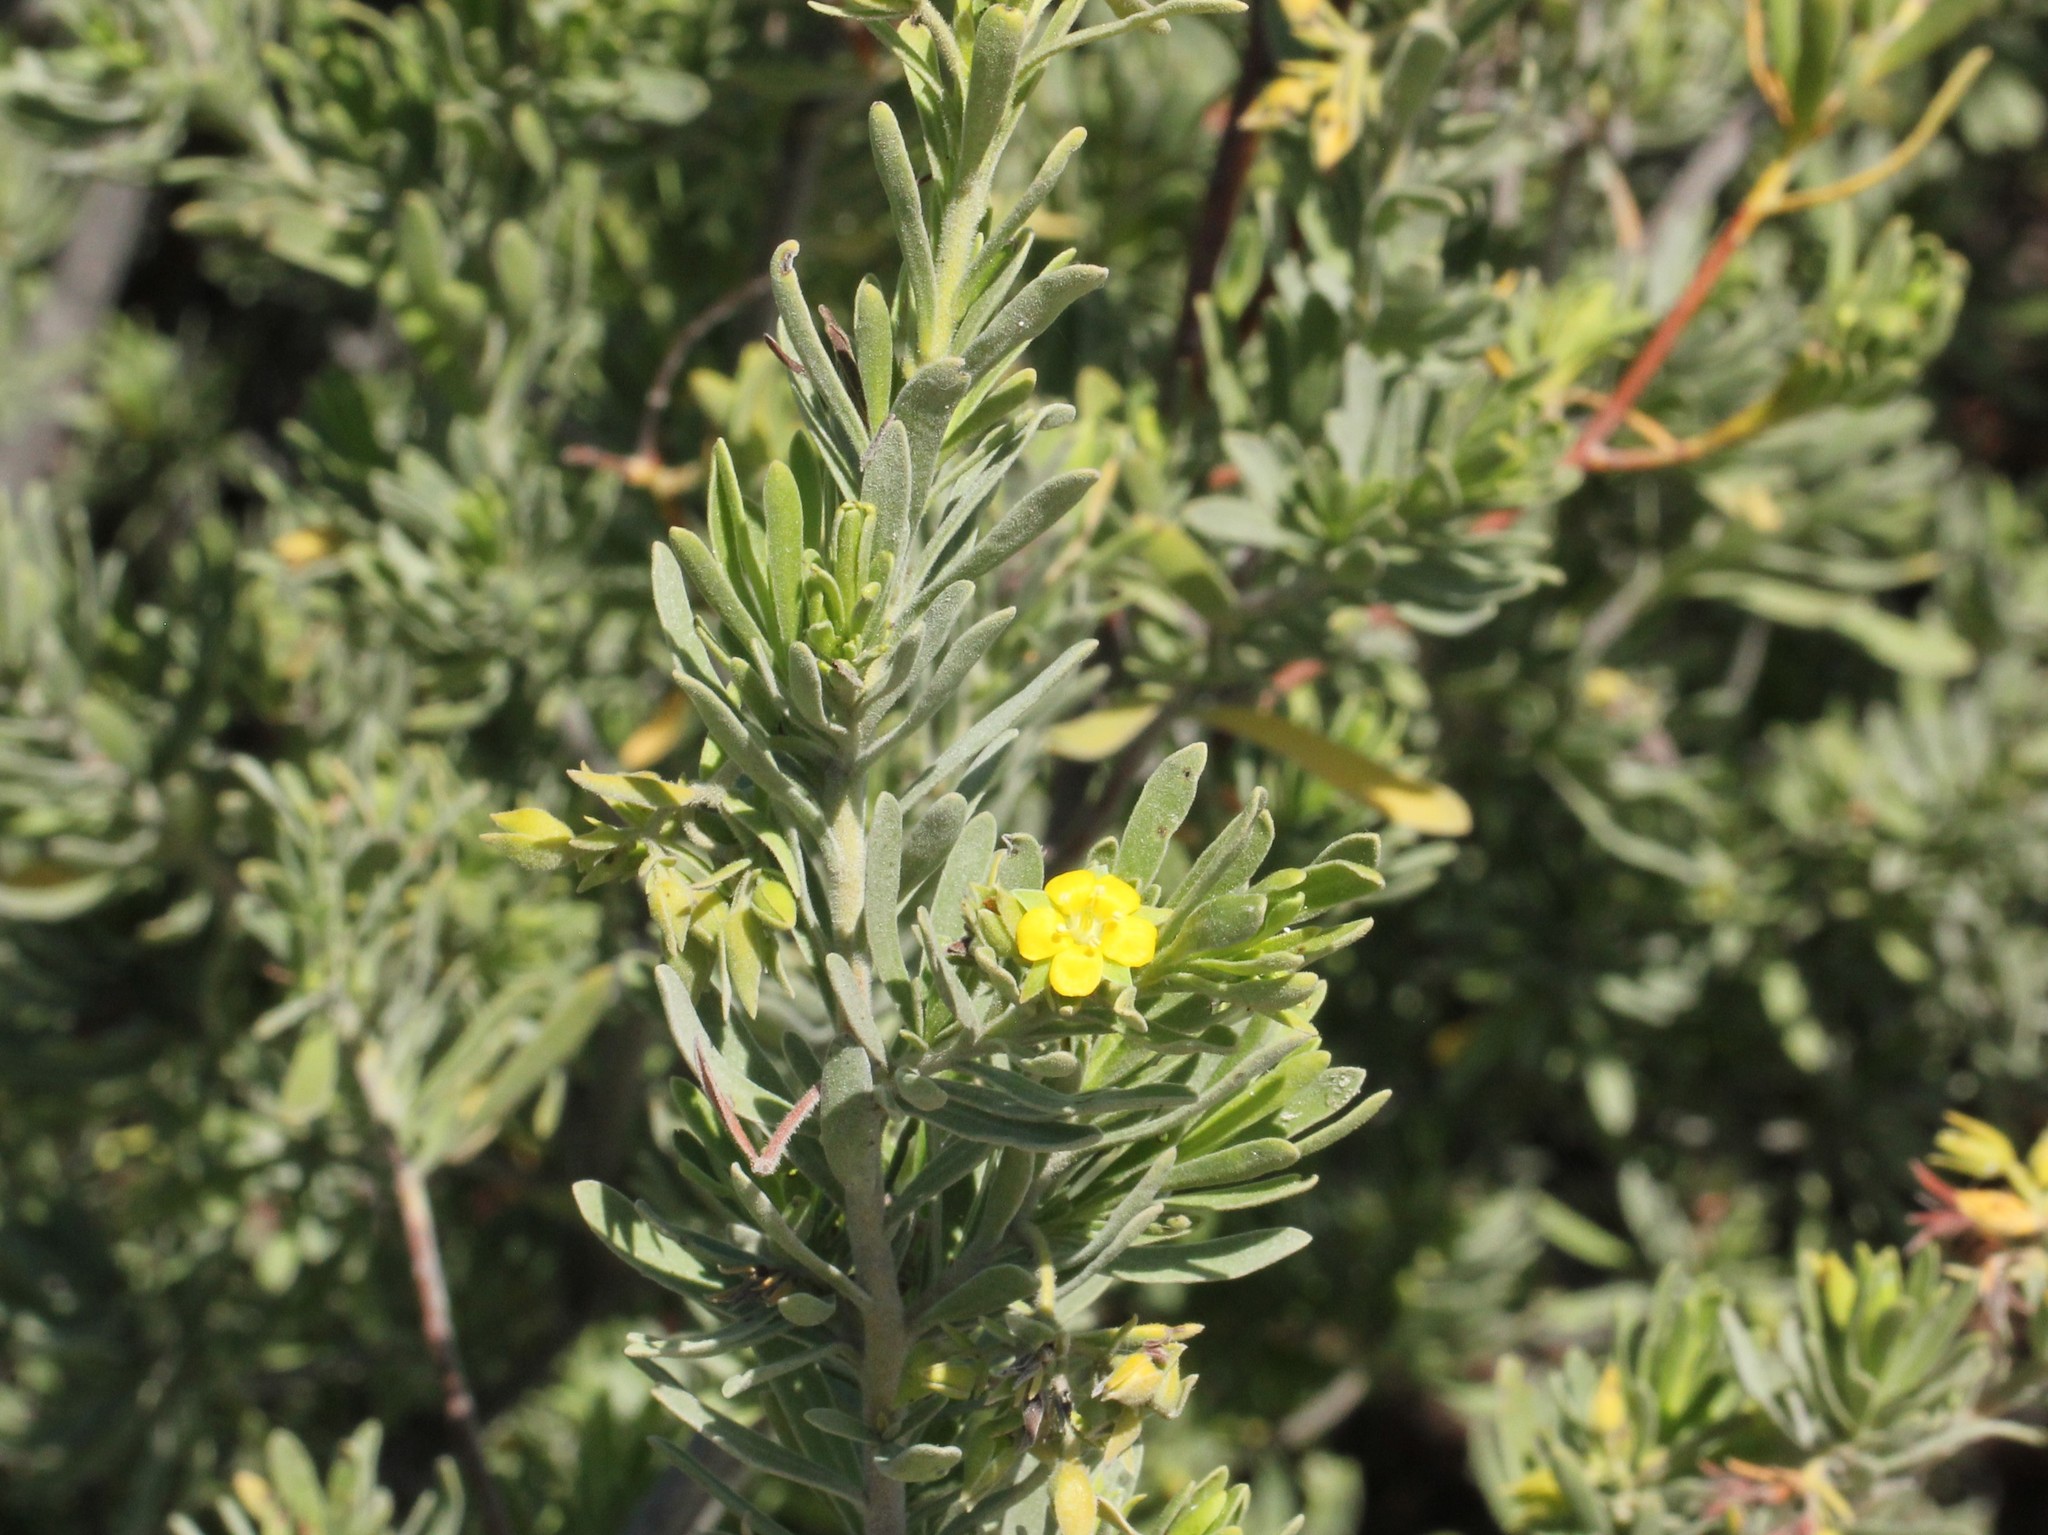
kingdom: Plantae
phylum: Tracheophyta
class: Magnoliopsida
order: Fabales
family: Surianaceae
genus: Suriana
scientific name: Suriana maritima
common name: Bay-cedar
